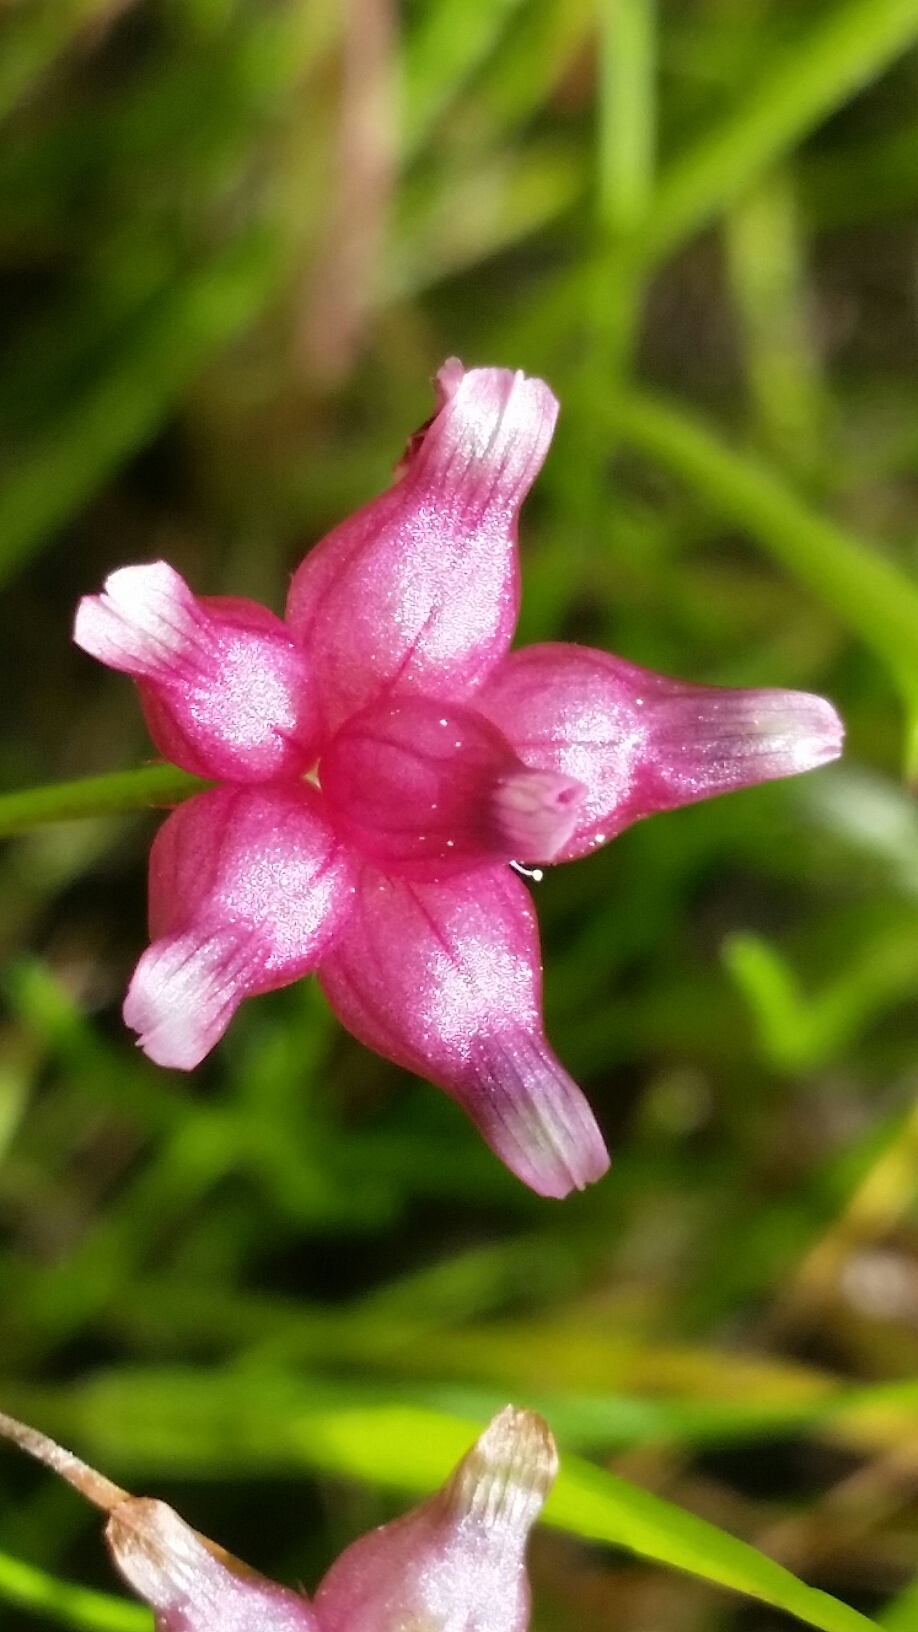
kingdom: Plantae
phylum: Tracheophyta
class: Magnoliopsida
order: Fabales
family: Fabaceae
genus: Trifolium
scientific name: Trifolium depauperatum
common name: Poverty clover
